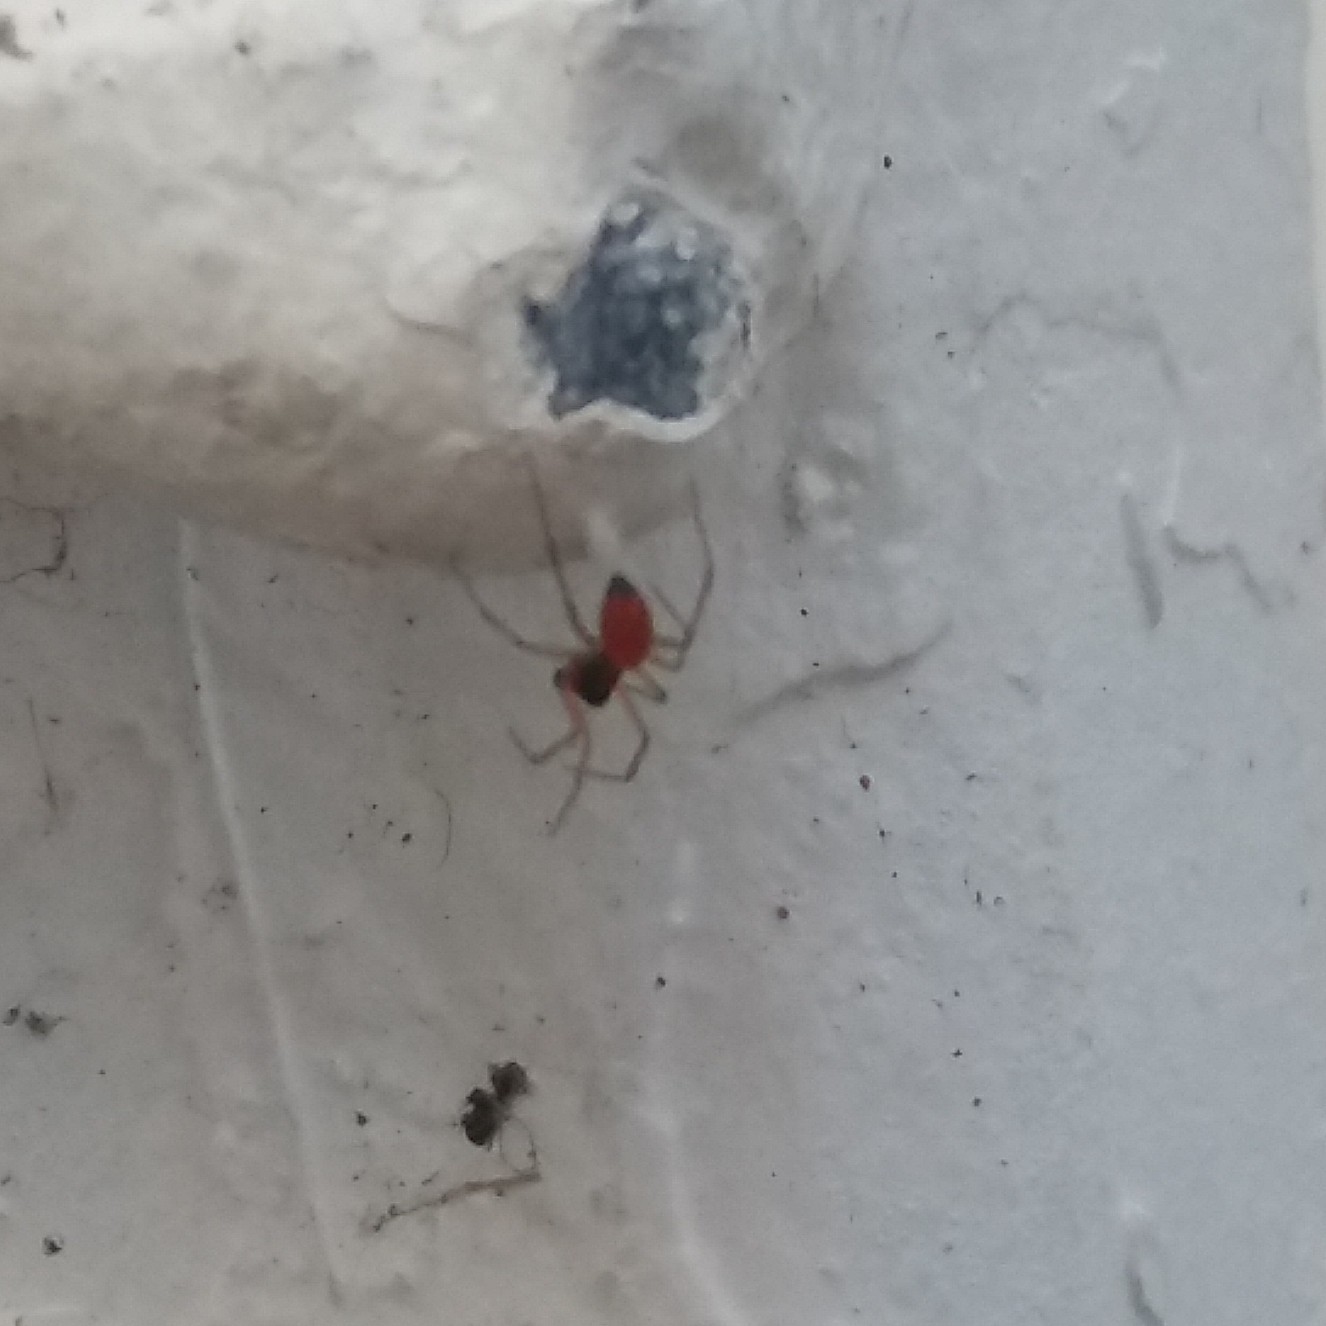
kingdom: Animalia
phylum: Arthropoda
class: Arachnida
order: Araneae
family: Linyphiidae
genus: Ostearius
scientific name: Ostearius melanopygius
